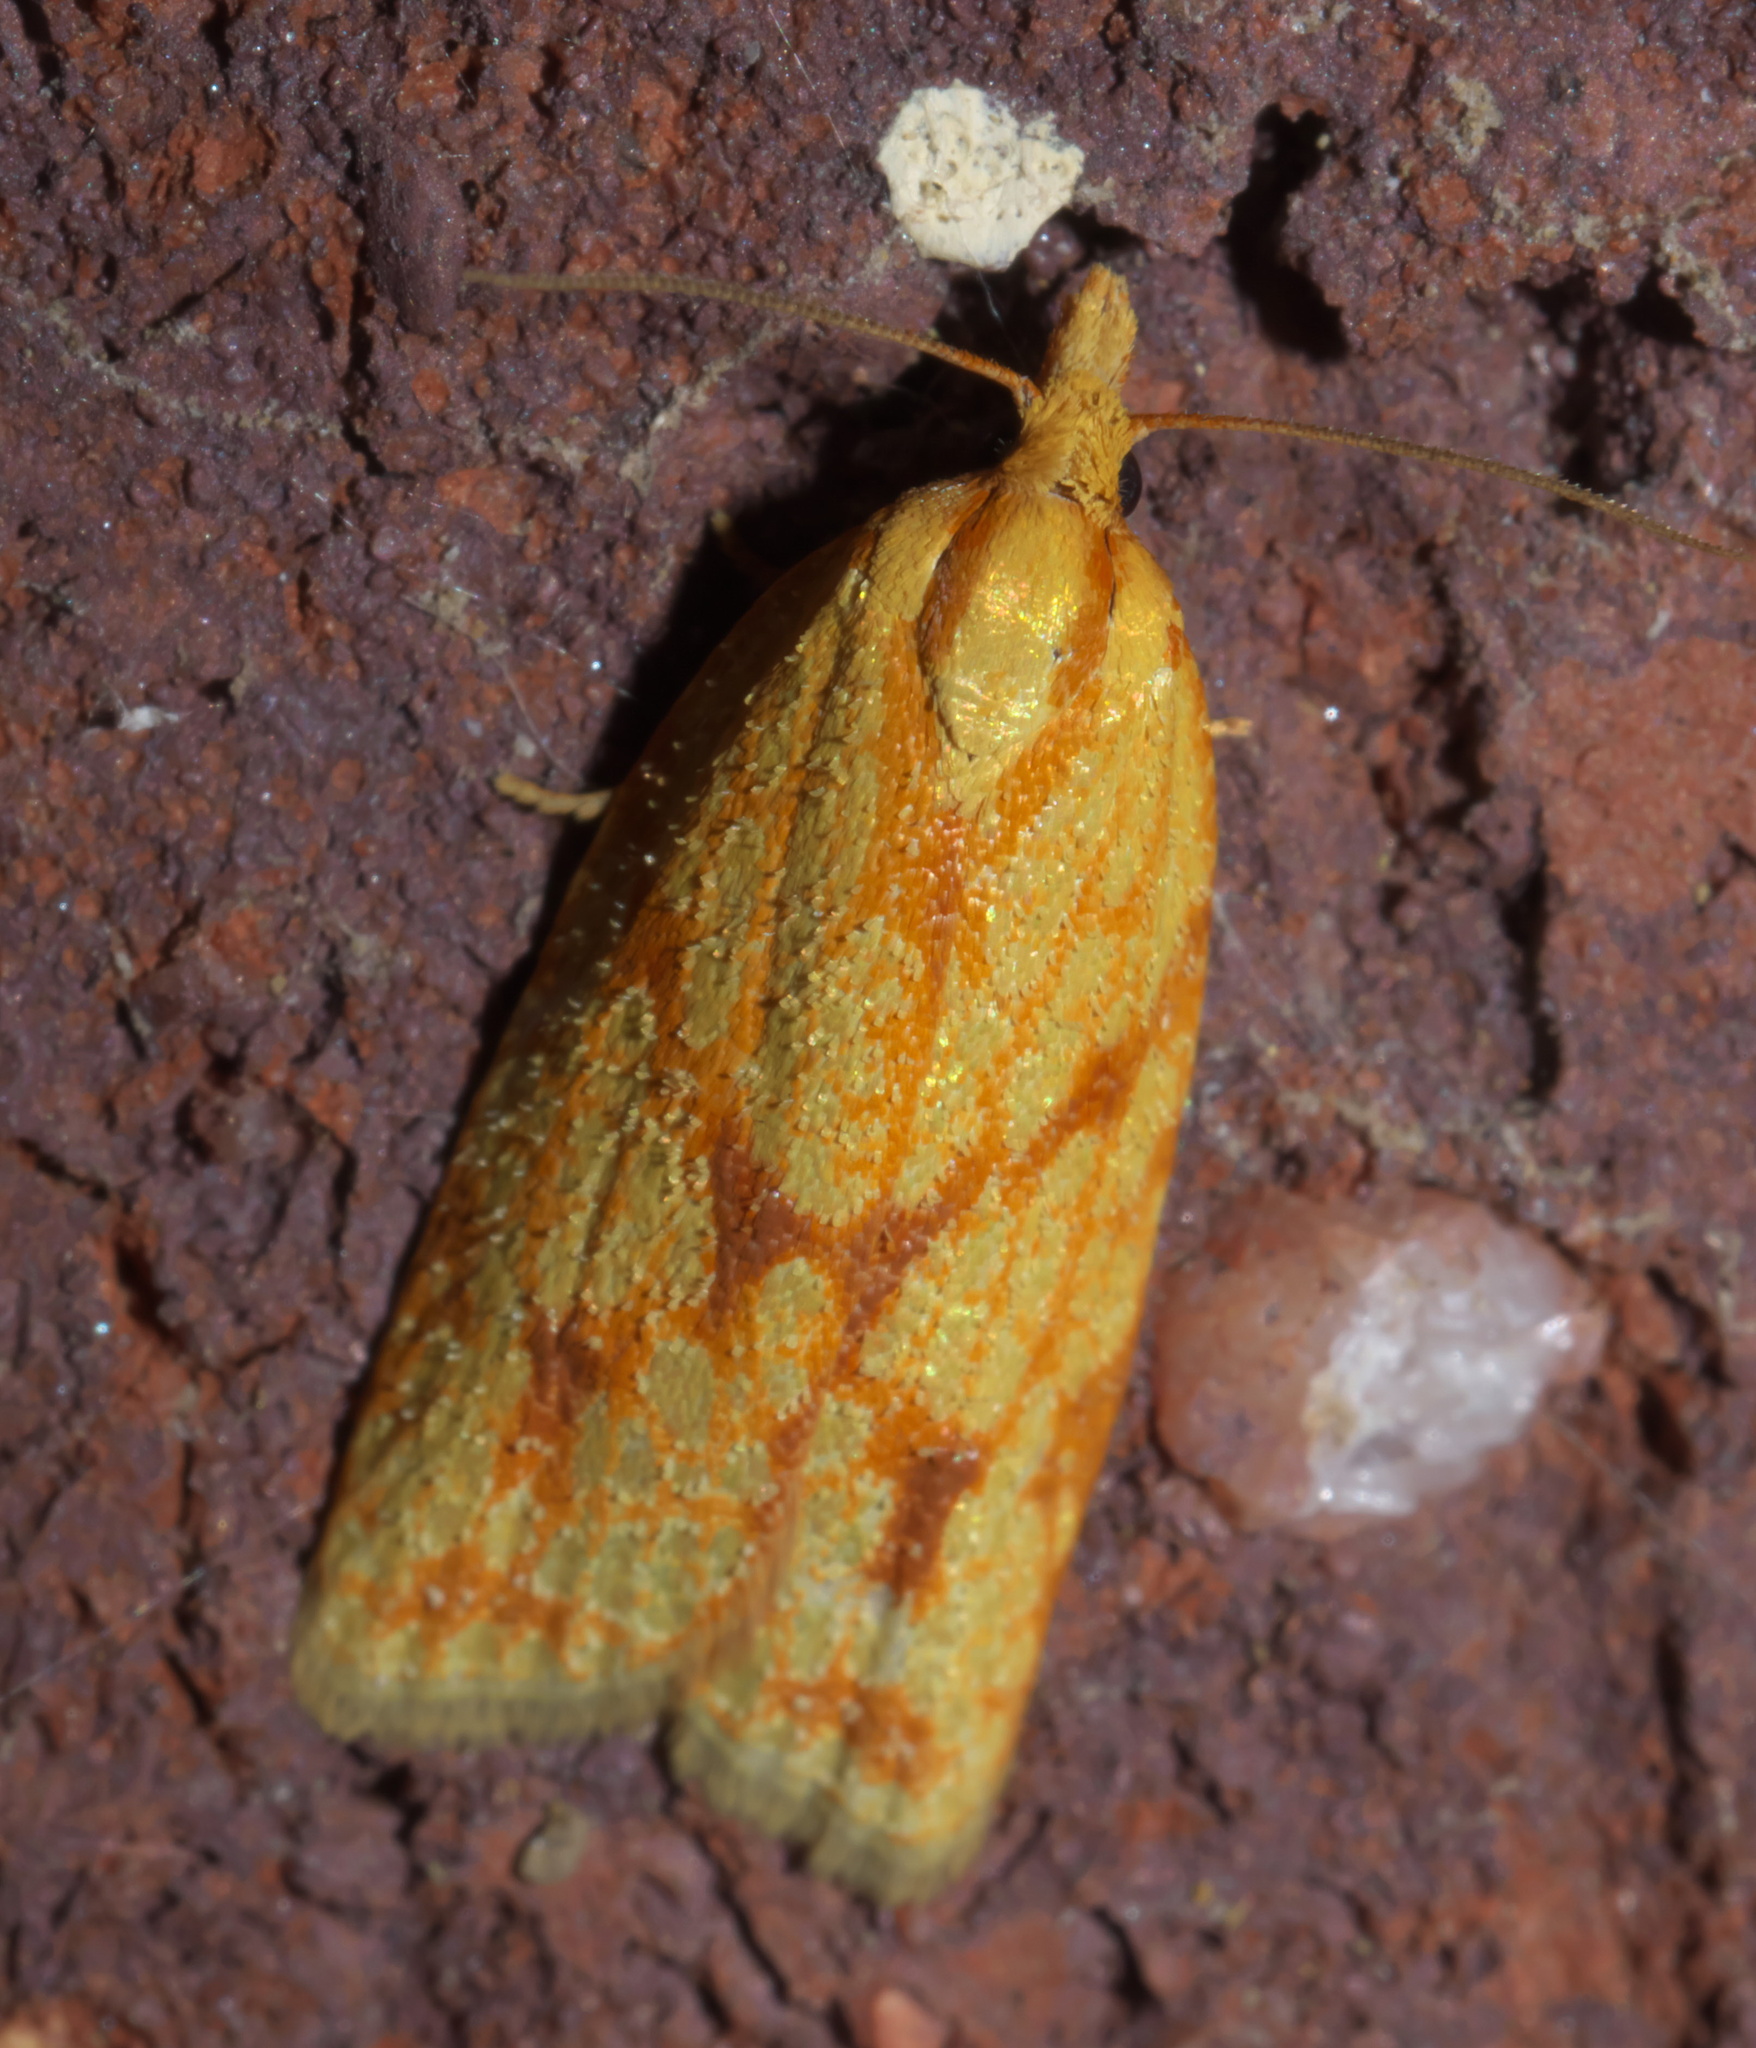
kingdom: Animalia
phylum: Arthropoda
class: Insecta
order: Lepidoptera
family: Tortricidae
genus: Sparganothis
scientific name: Sparganothis sulfureana
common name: Sparganothis fruitworm moth
